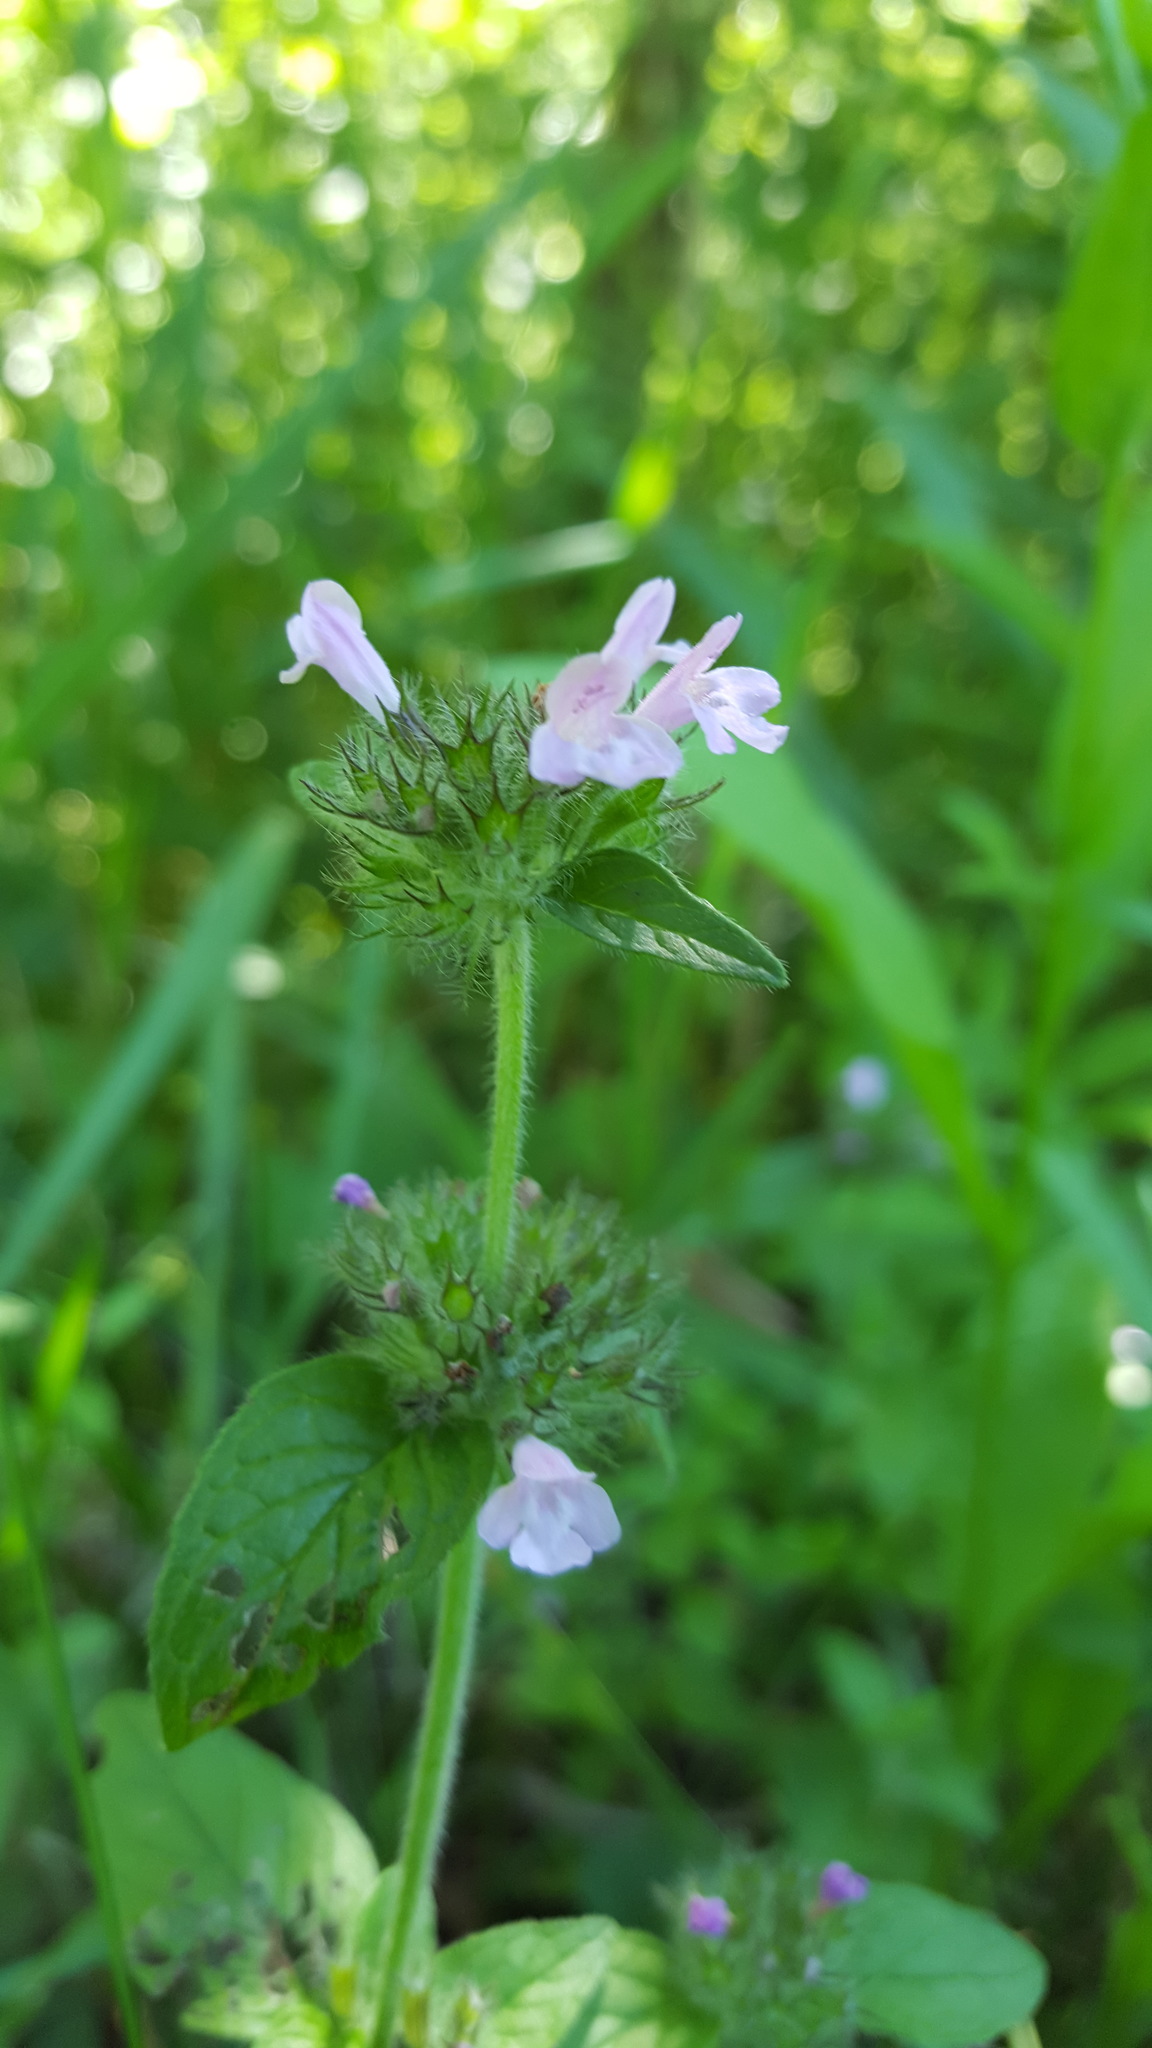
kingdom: Plantae
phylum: Tracheophyta
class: Magnoliopsida
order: Lamiales
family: Lamiaceae
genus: Clinopodium
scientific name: Clinopodium vulgare
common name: Wild basil
